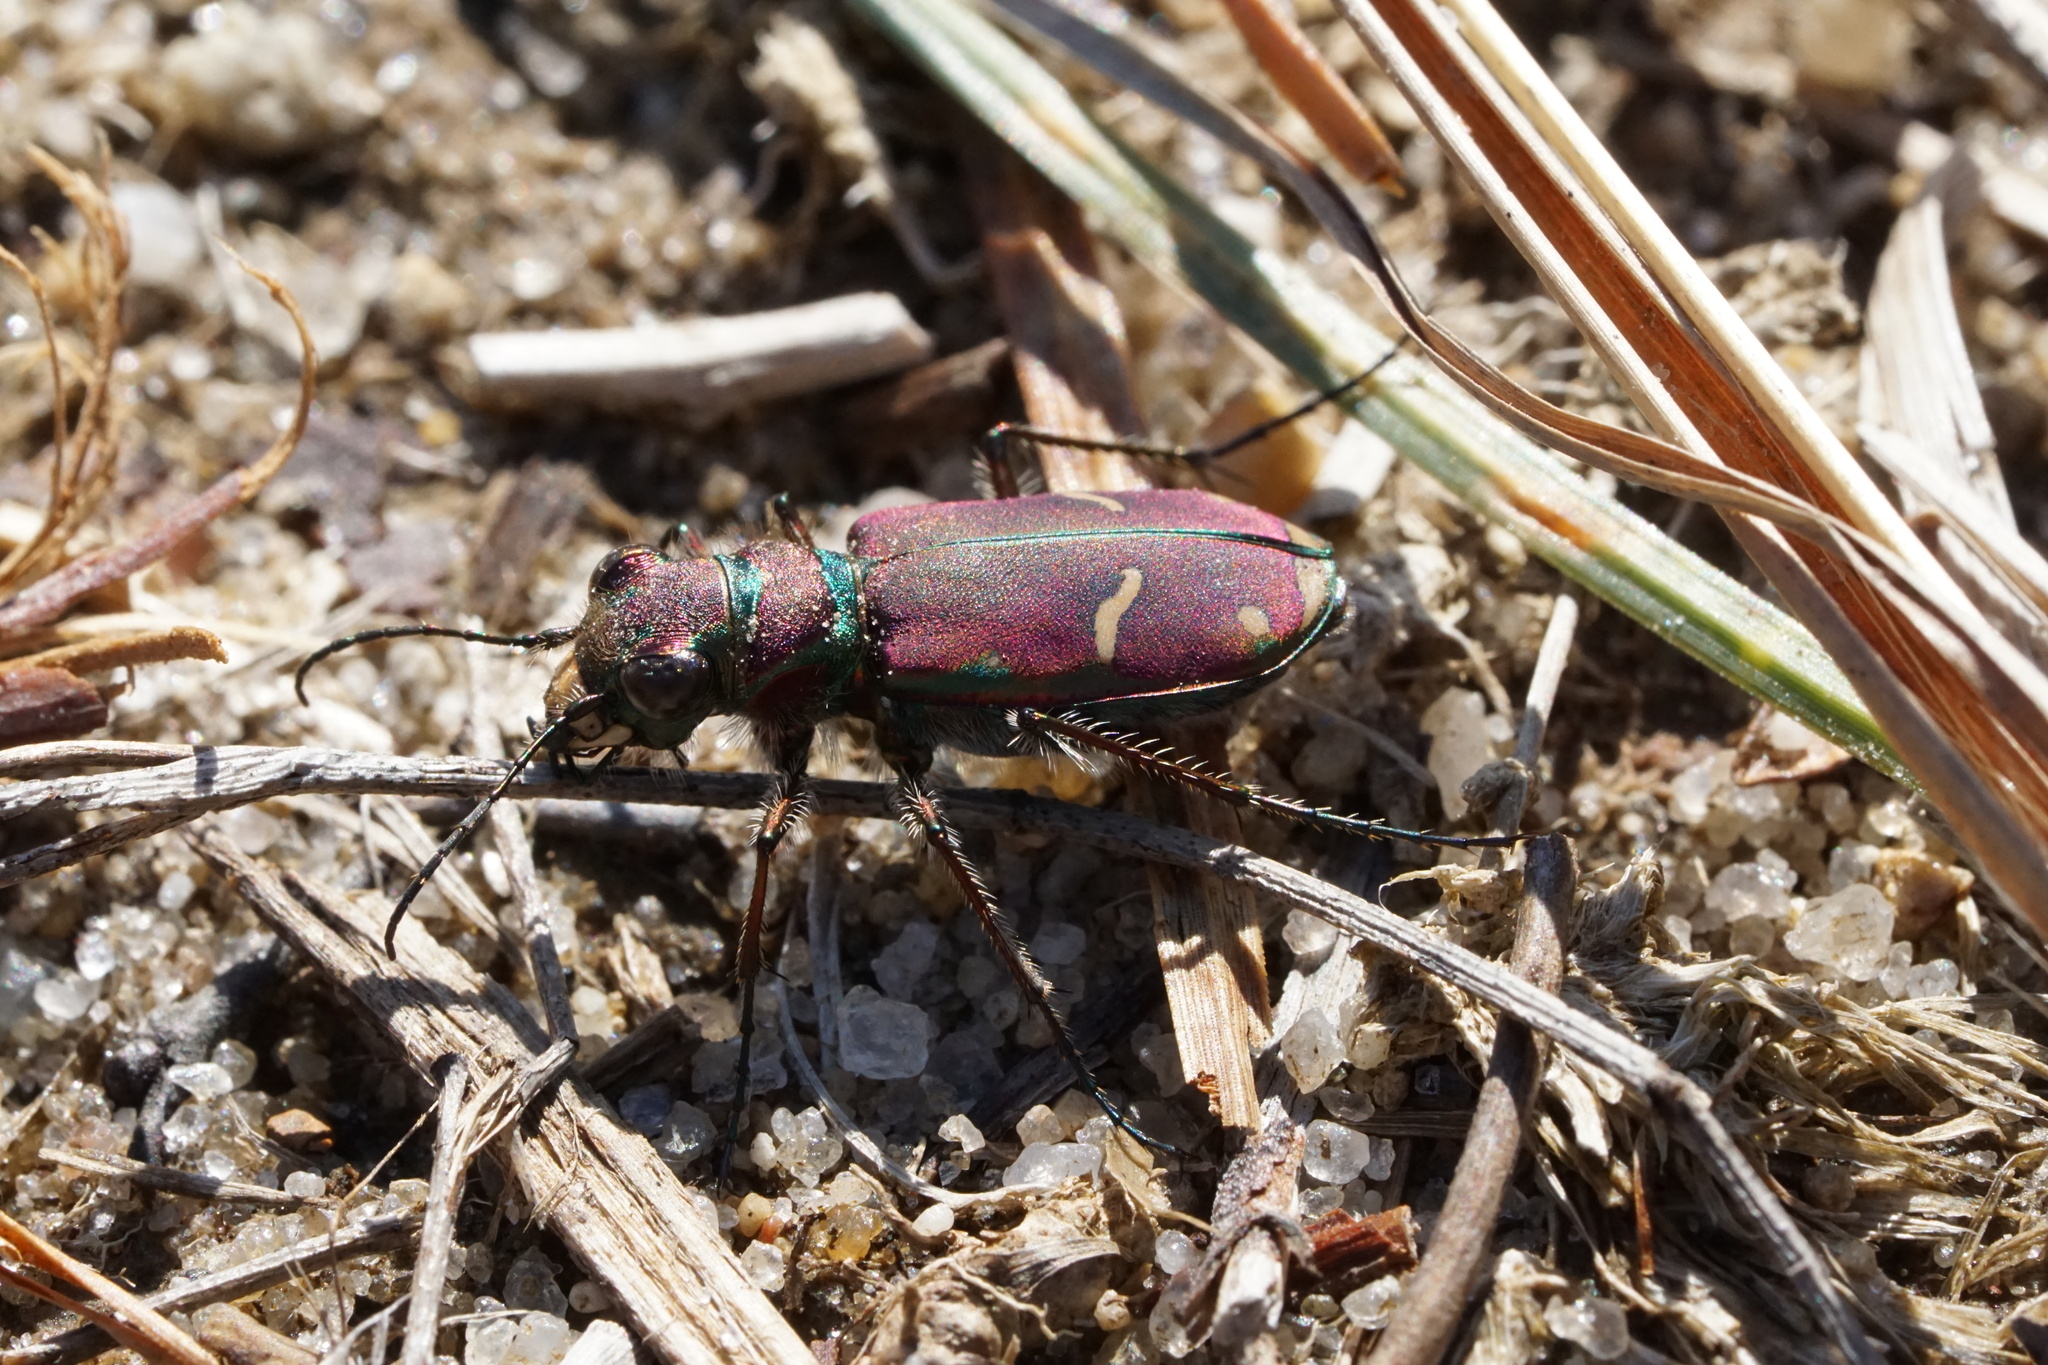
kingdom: Animalia
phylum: Arthropoda
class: Insecta
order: Coleoptera
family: Carabidae
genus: Cicindela
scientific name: Cicindela purpurea
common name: Cow path tiger beetle
